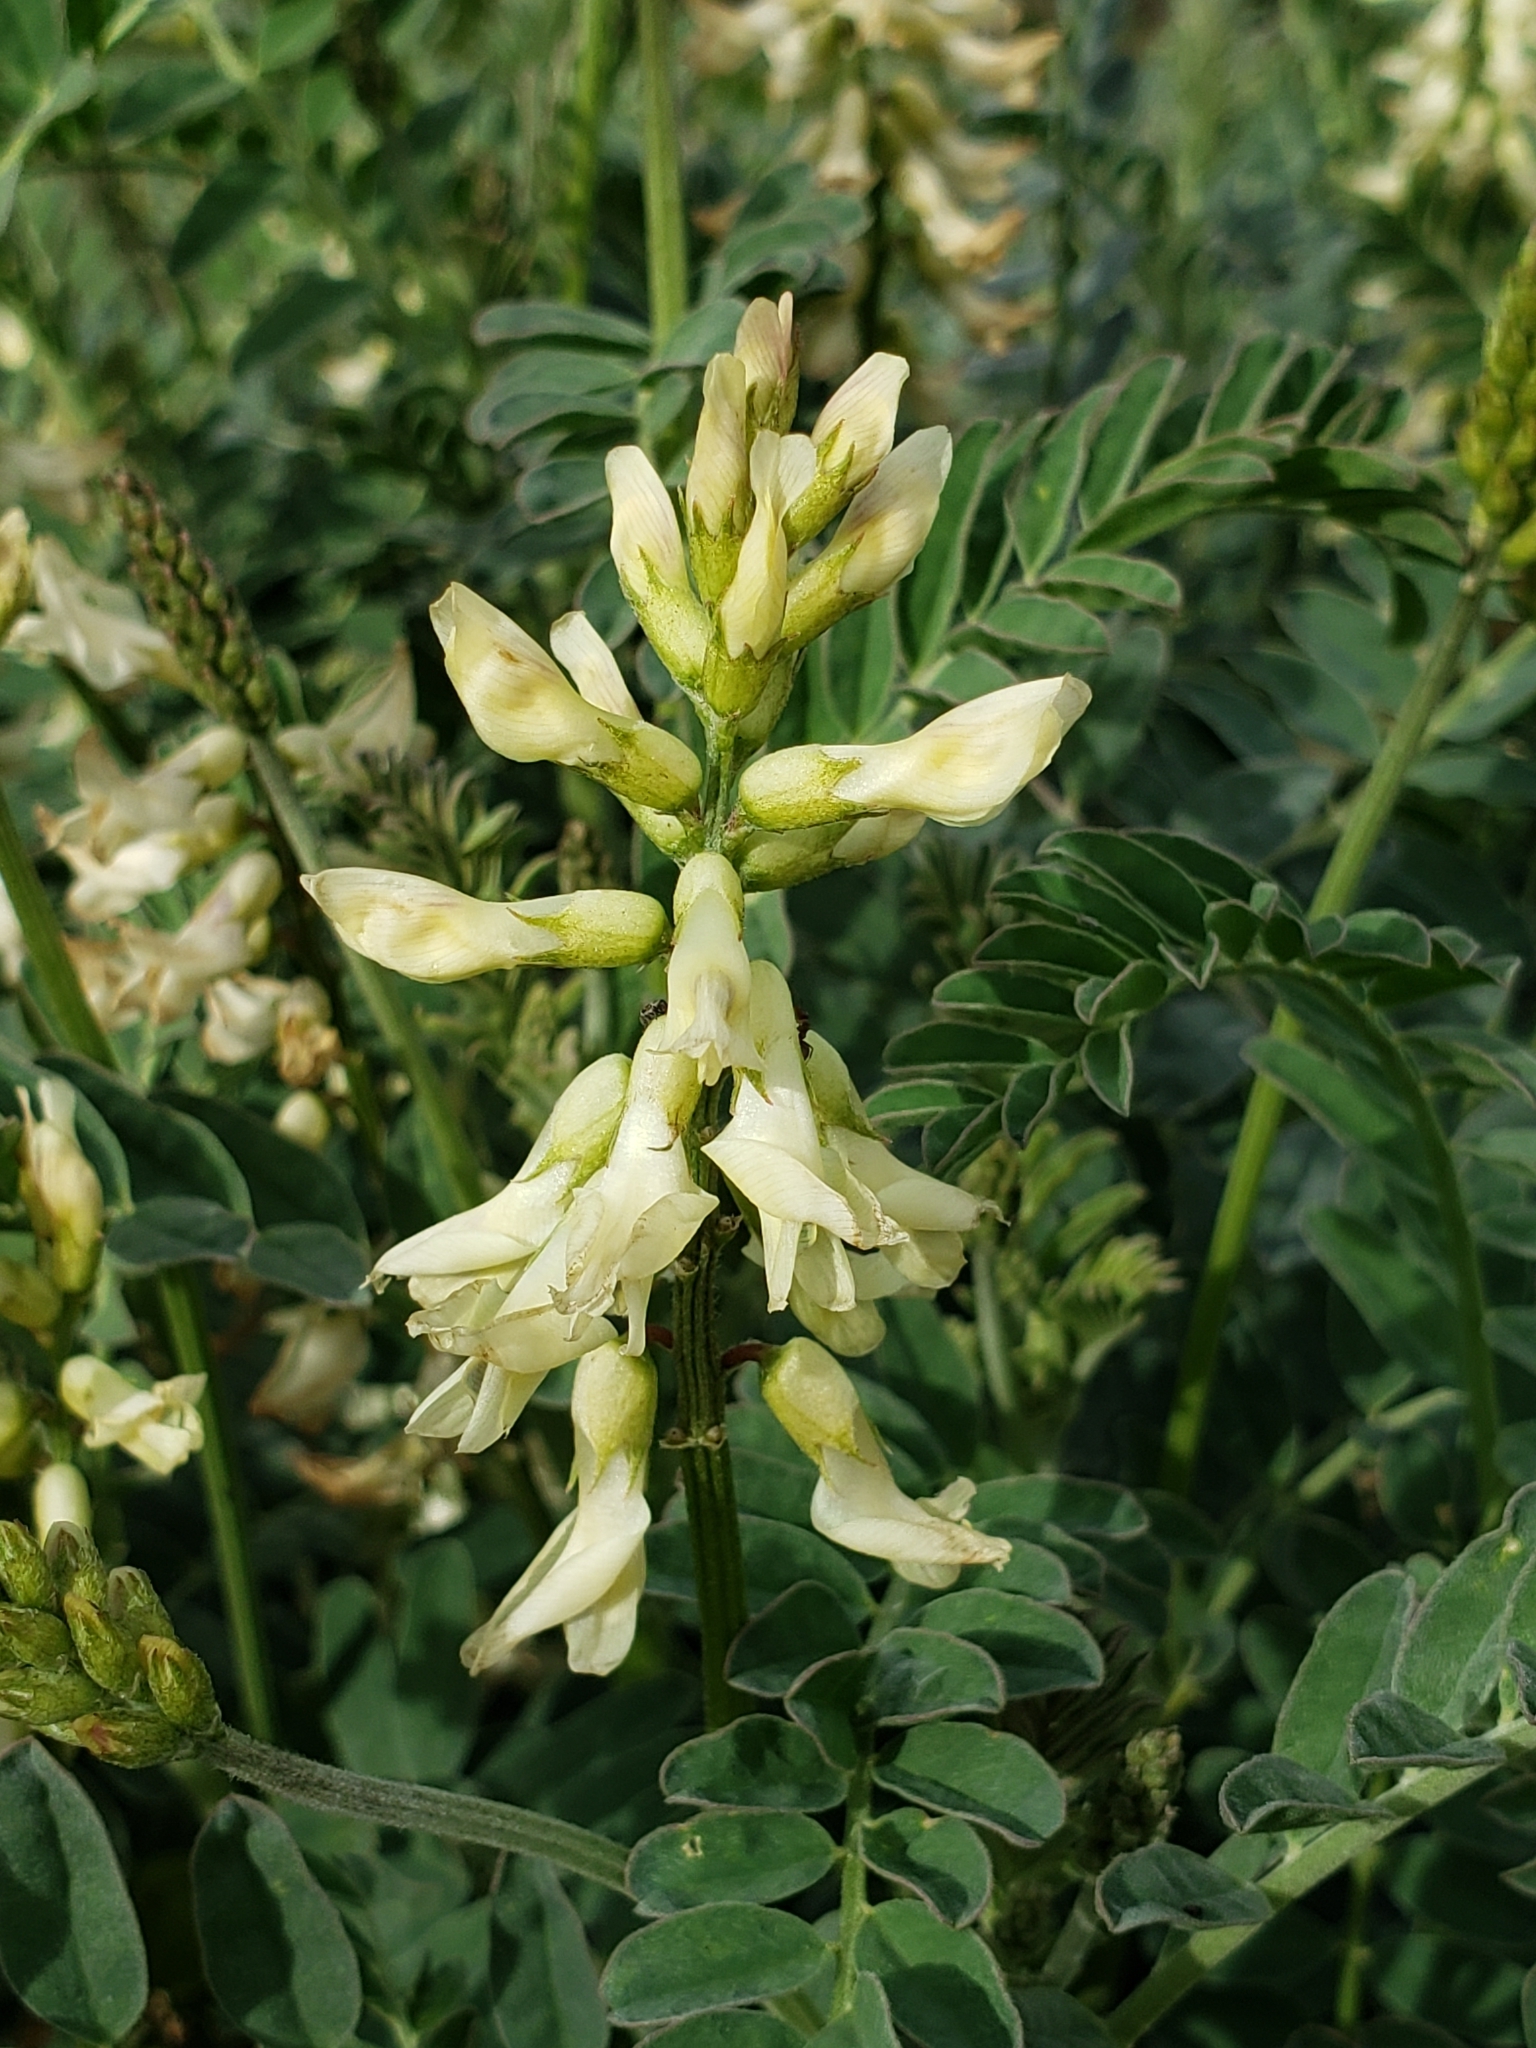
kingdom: Plantae
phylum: Tracheophyta
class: Magnoliopsida
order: Fabales
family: Fabaceae
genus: Astragalus
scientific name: Astragalus trichopodus
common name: Santa barbara milk-vetch
